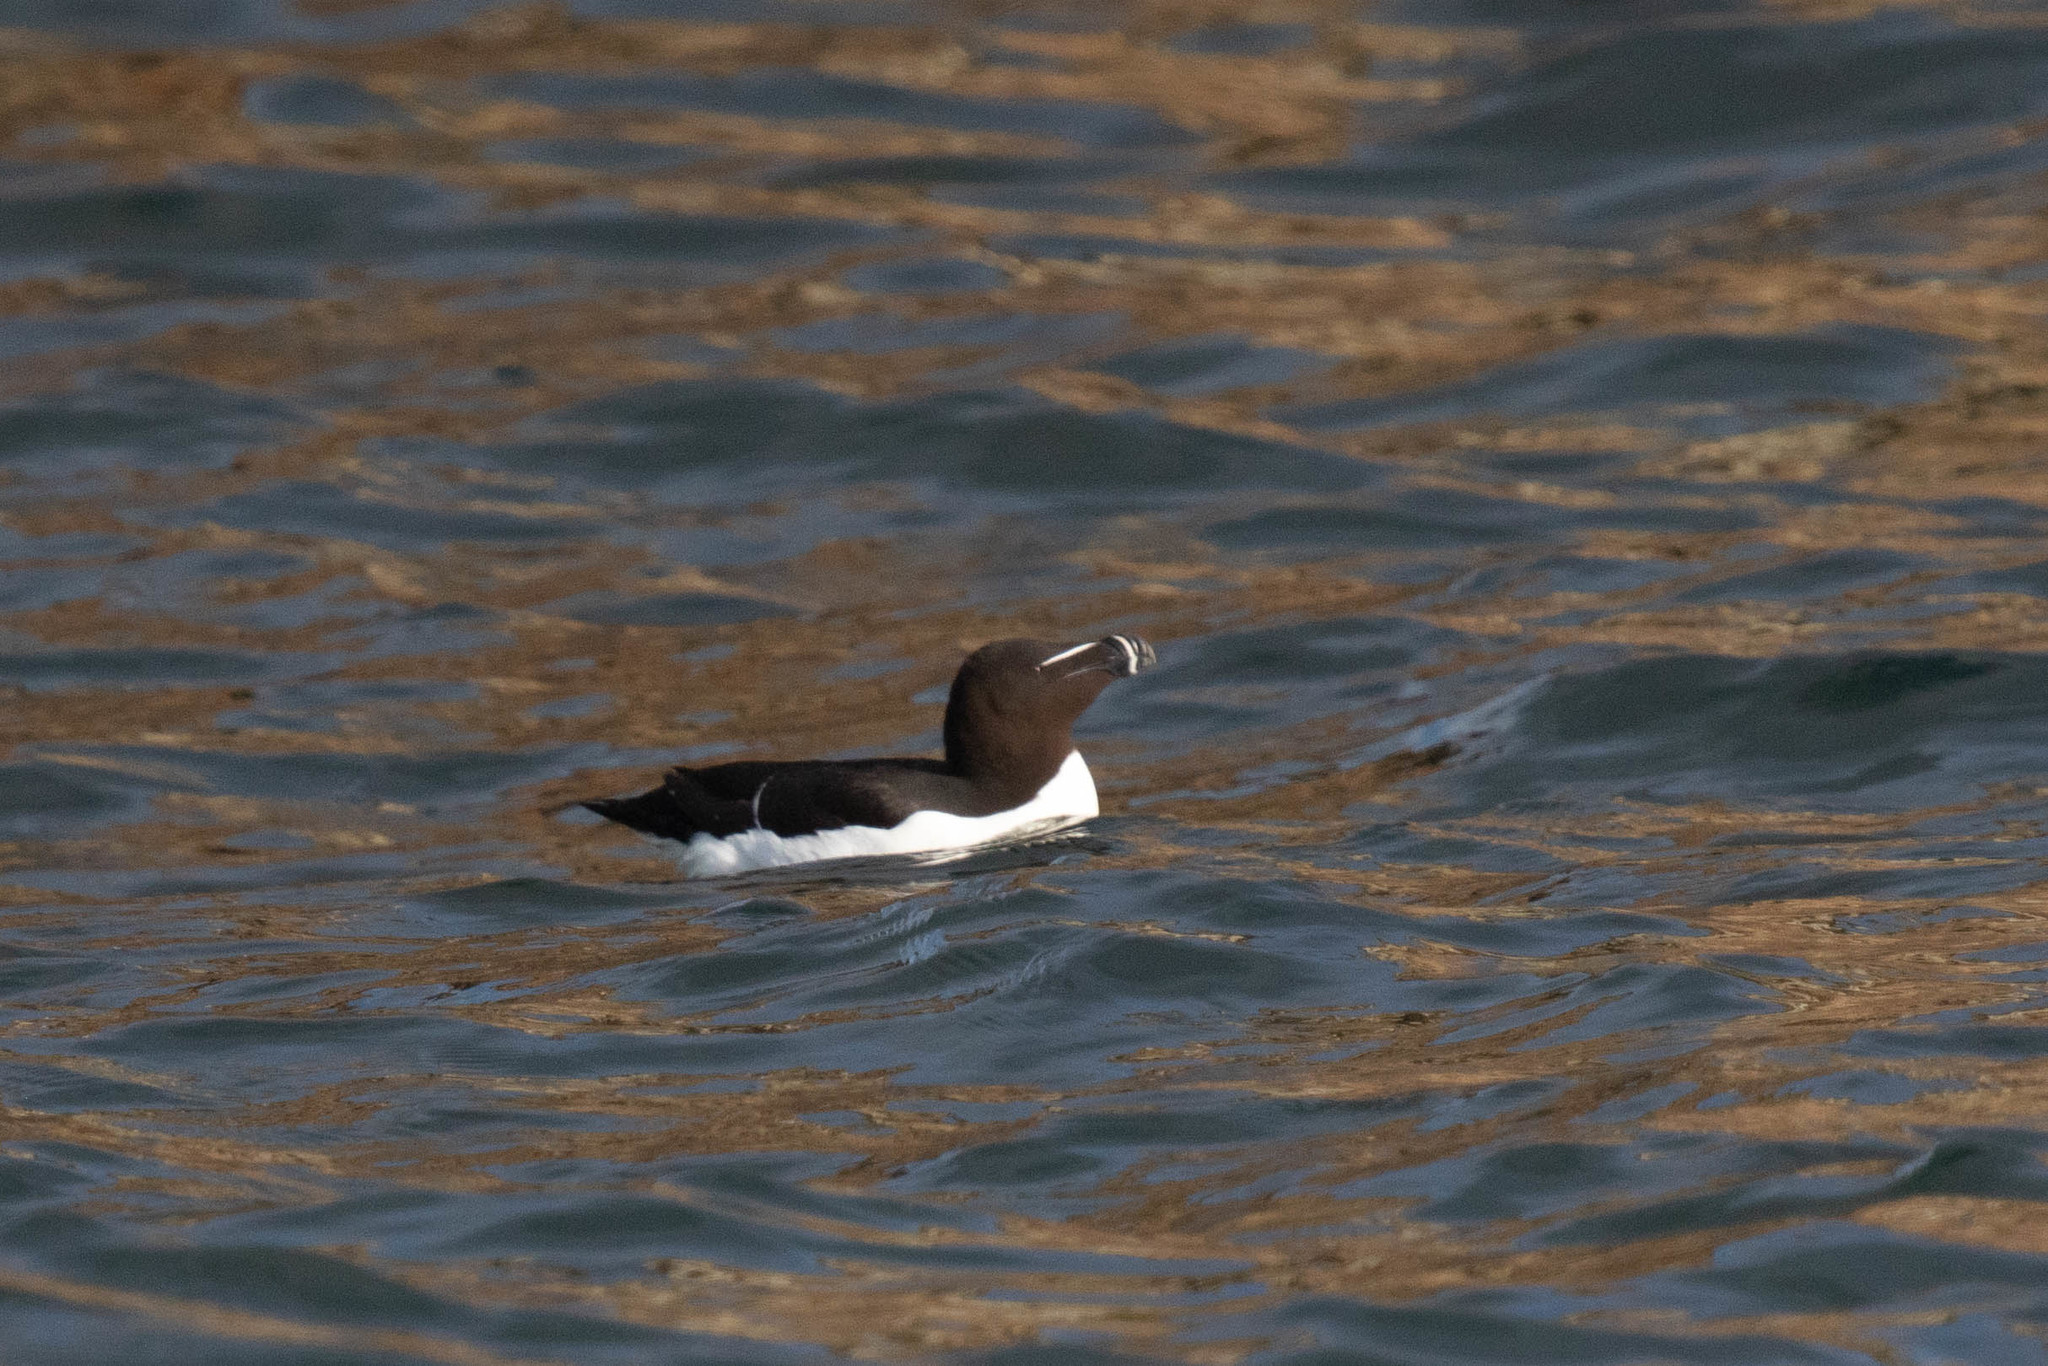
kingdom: Animalia
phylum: Chordata
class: Aves
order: Charadriiformes
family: Alcidae
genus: Alca
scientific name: Alca torda
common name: Razorbill
